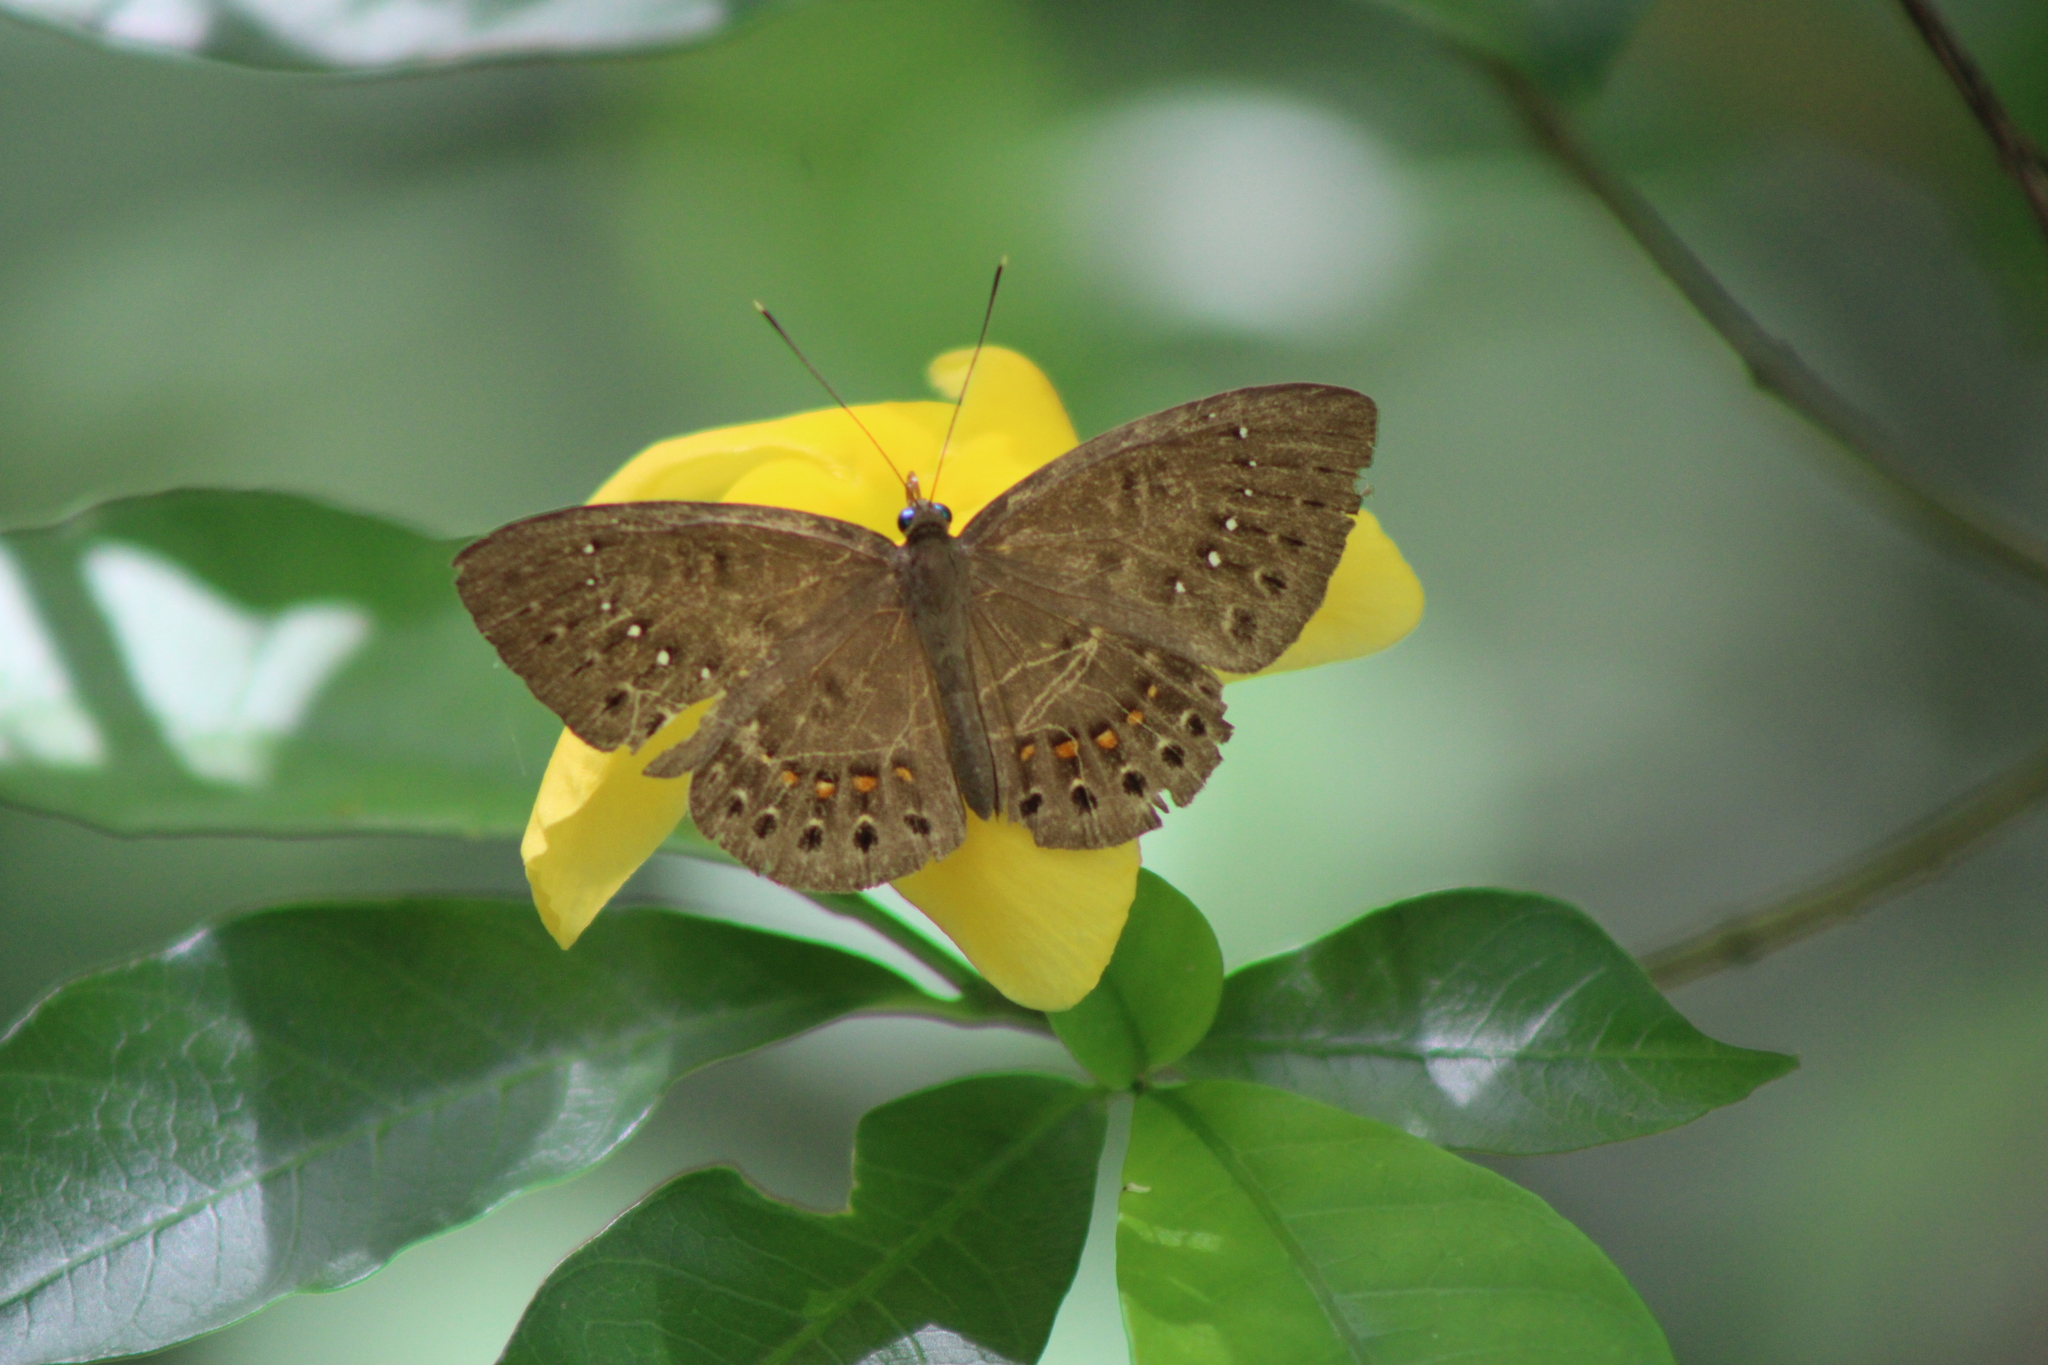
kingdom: Animalia
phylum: Cnidaria
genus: Eurybia
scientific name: Eurybia elvina
